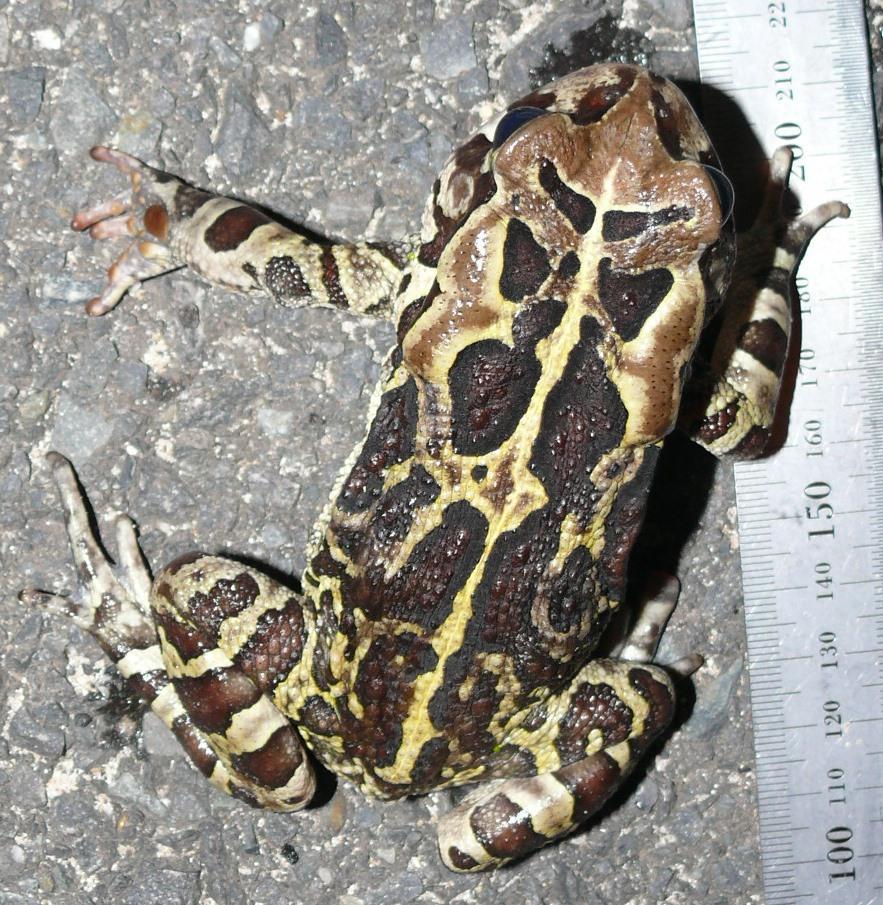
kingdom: Animalia
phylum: Chordata
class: Amphibia
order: Anura
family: Bufonidae
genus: Sclerophrys
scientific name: Sclerophrys pantherina
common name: Panther toad
